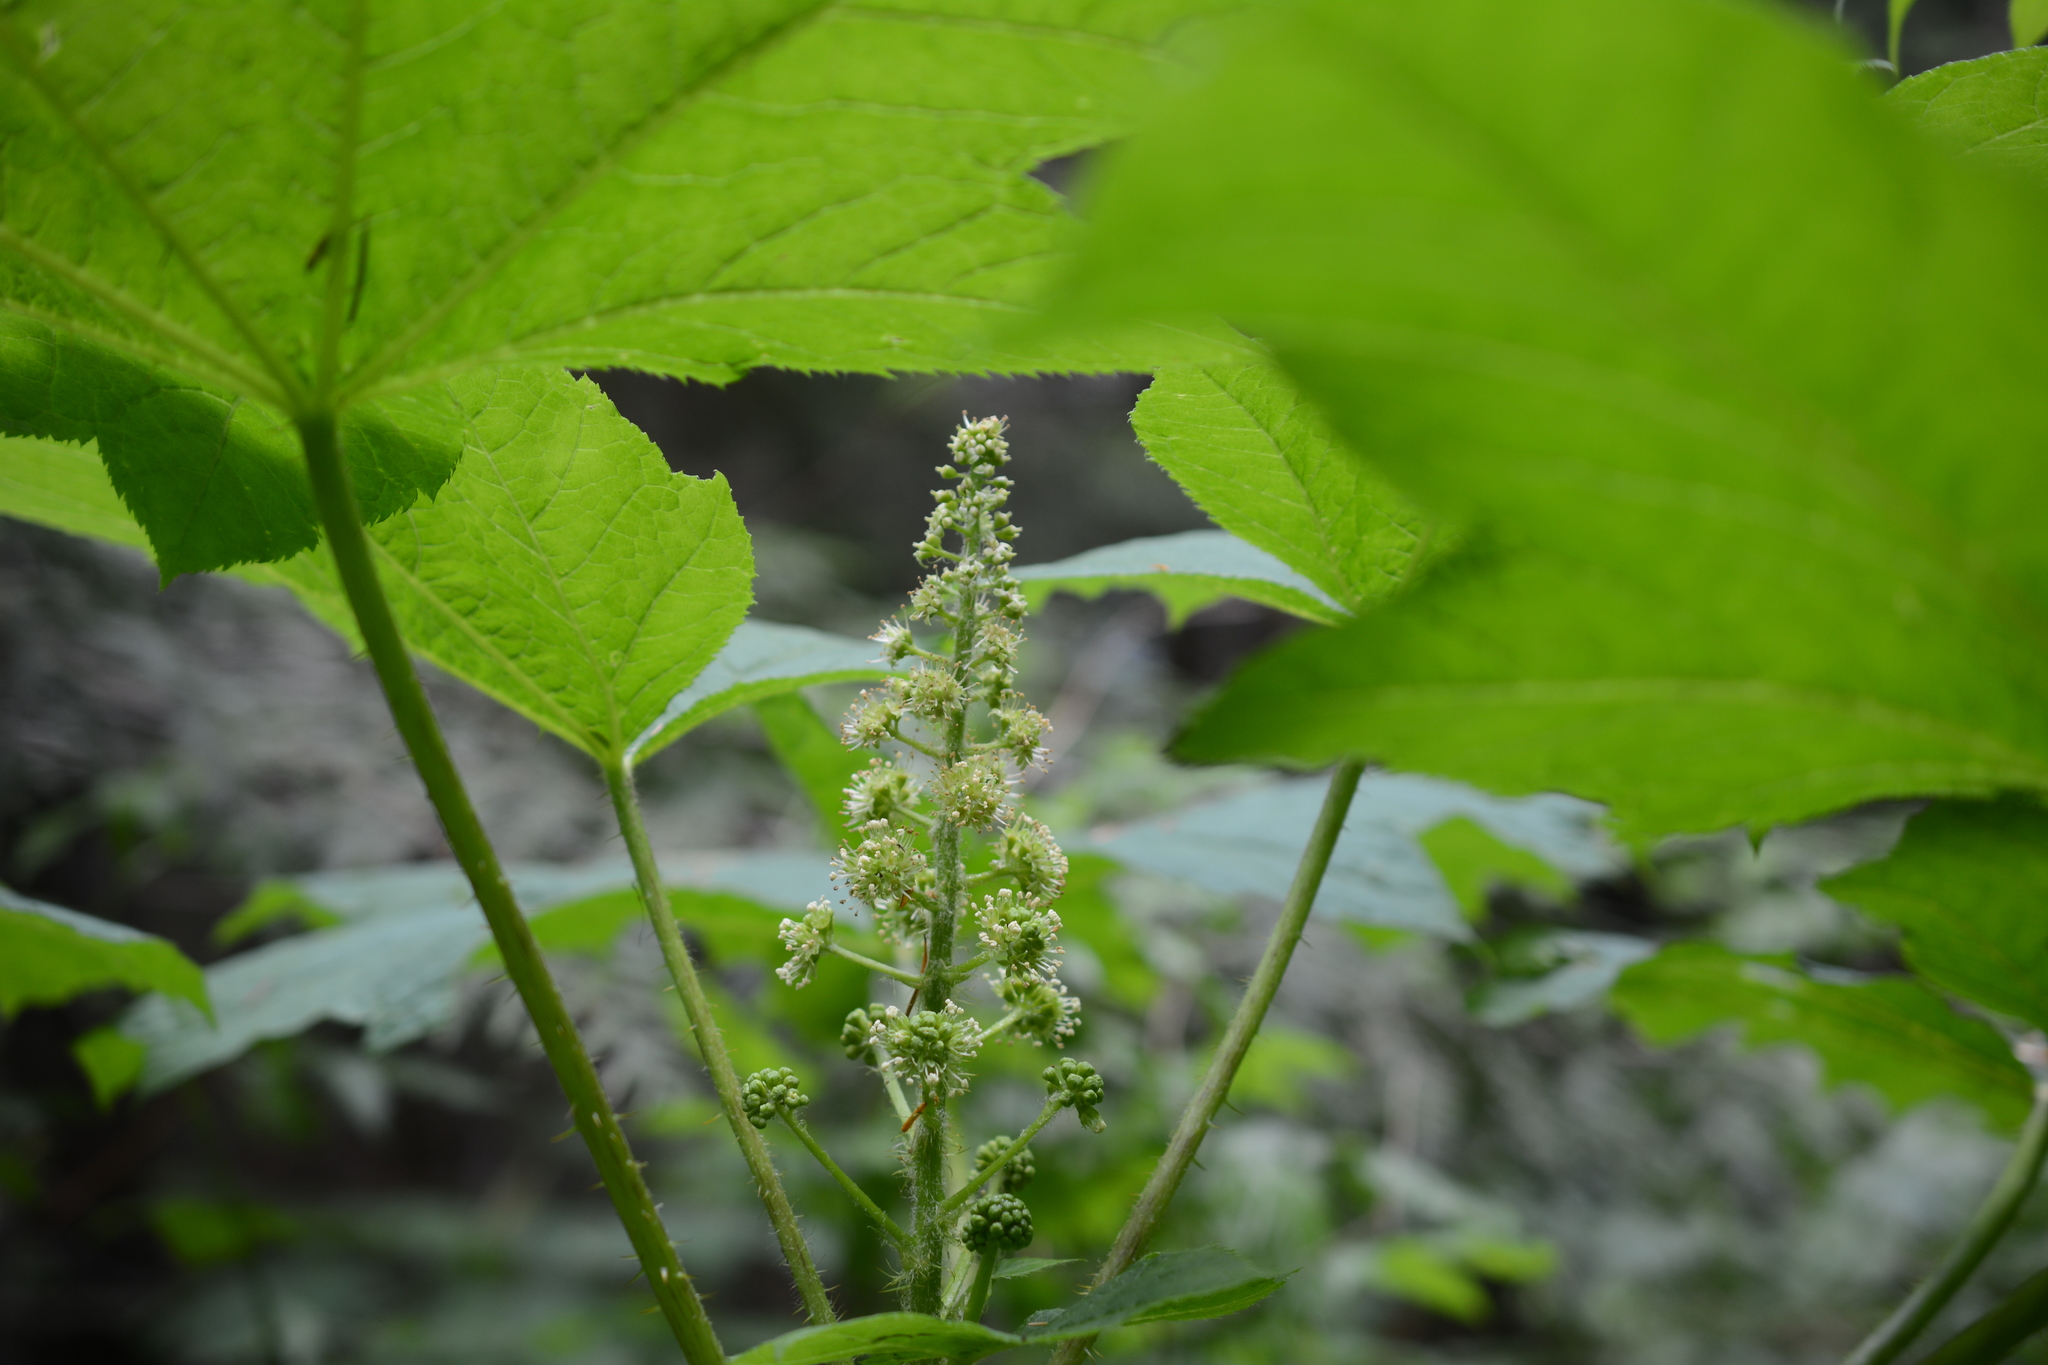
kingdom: Plantae
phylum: Tracheophyta
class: Magnoliopsida
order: Apiales
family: Araliaceae
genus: Oplopanax
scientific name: Oplopanax horridus
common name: Devil's walking-stick
